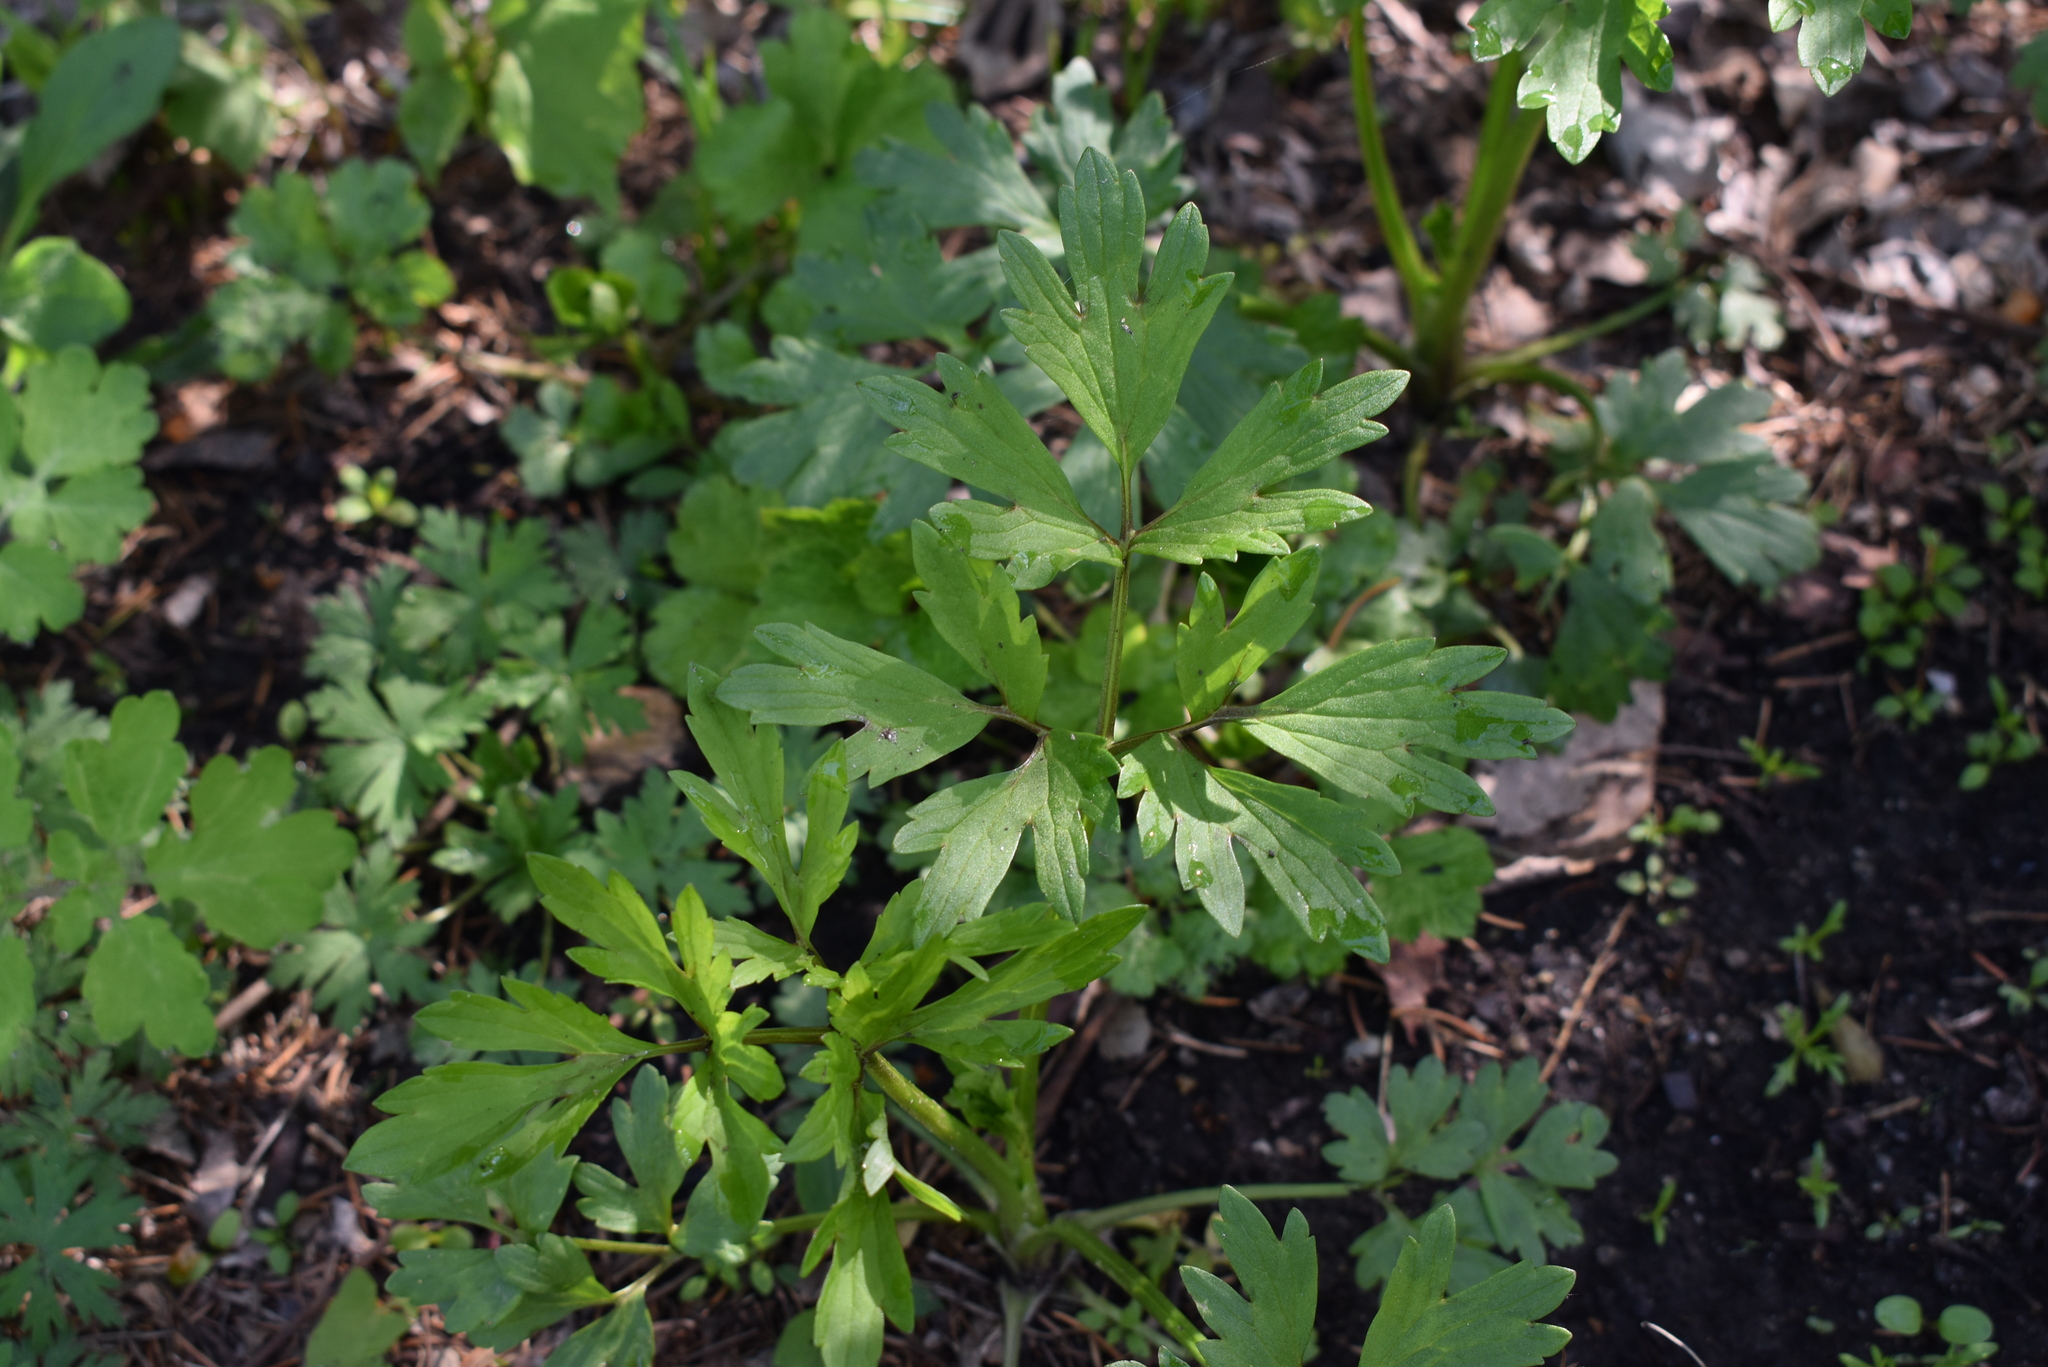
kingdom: Plantae
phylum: Tracheophyta
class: Magnoliopsida
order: Ranunculales
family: Ranunculaceae
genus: Ranunculus
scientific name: Ranunculus repens
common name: Creeping buttercup
